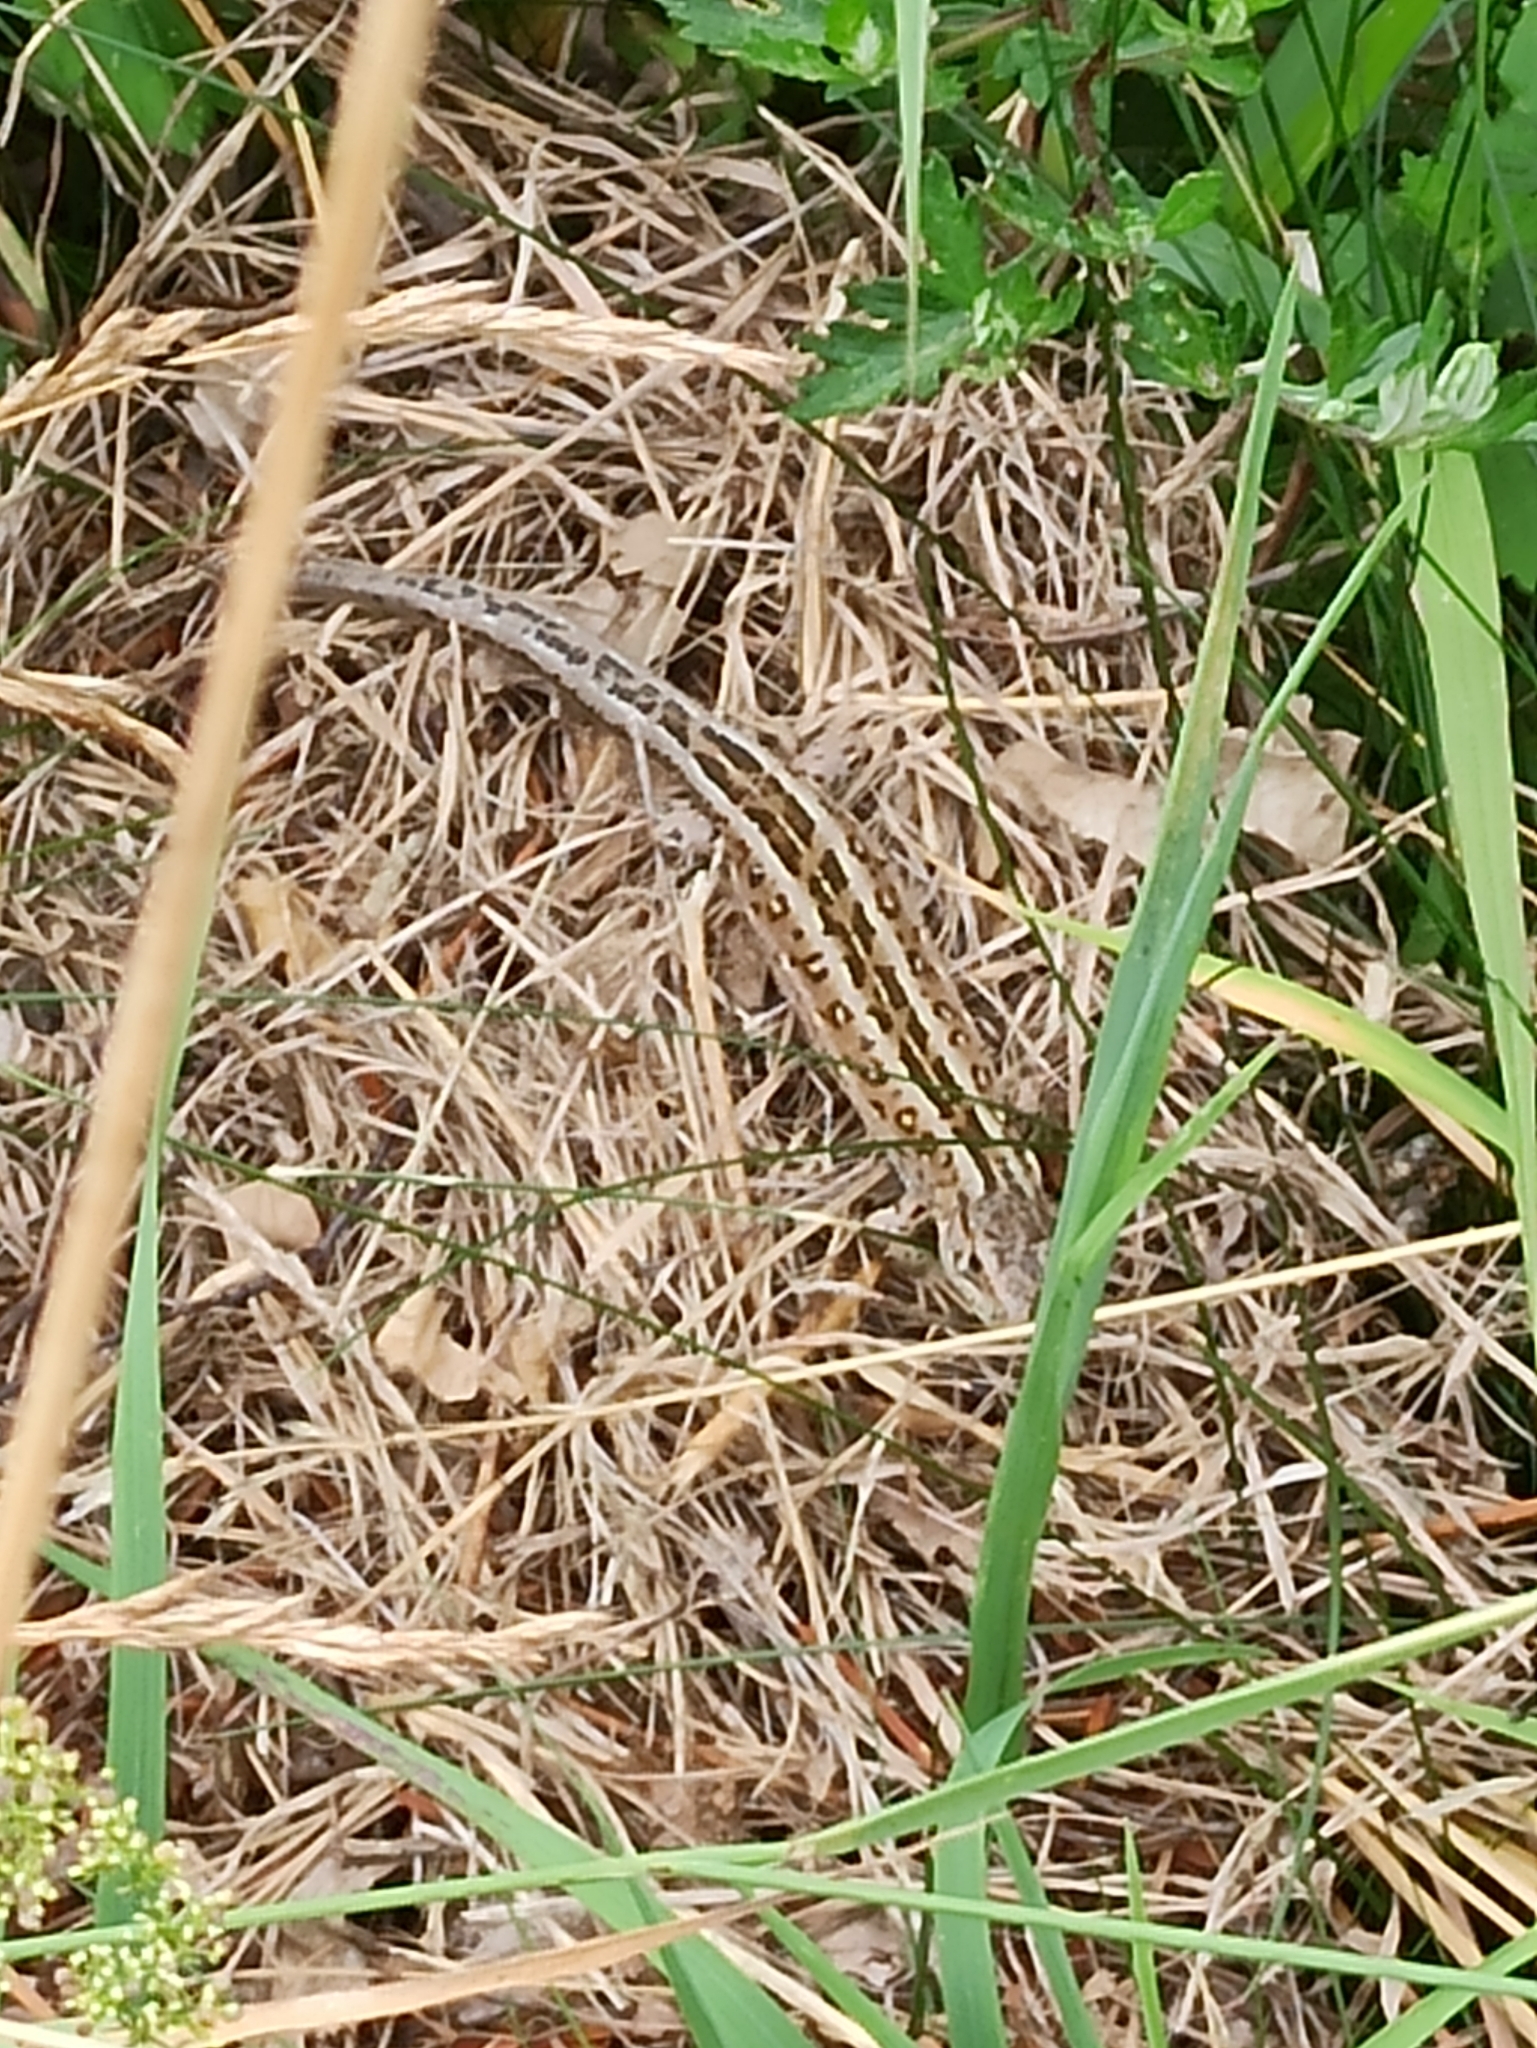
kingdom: Animalia
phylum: Chordata
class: Squamata
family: Lacertidae
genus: Lacerta
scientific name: Lacerta agilis
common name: Sand lizard
